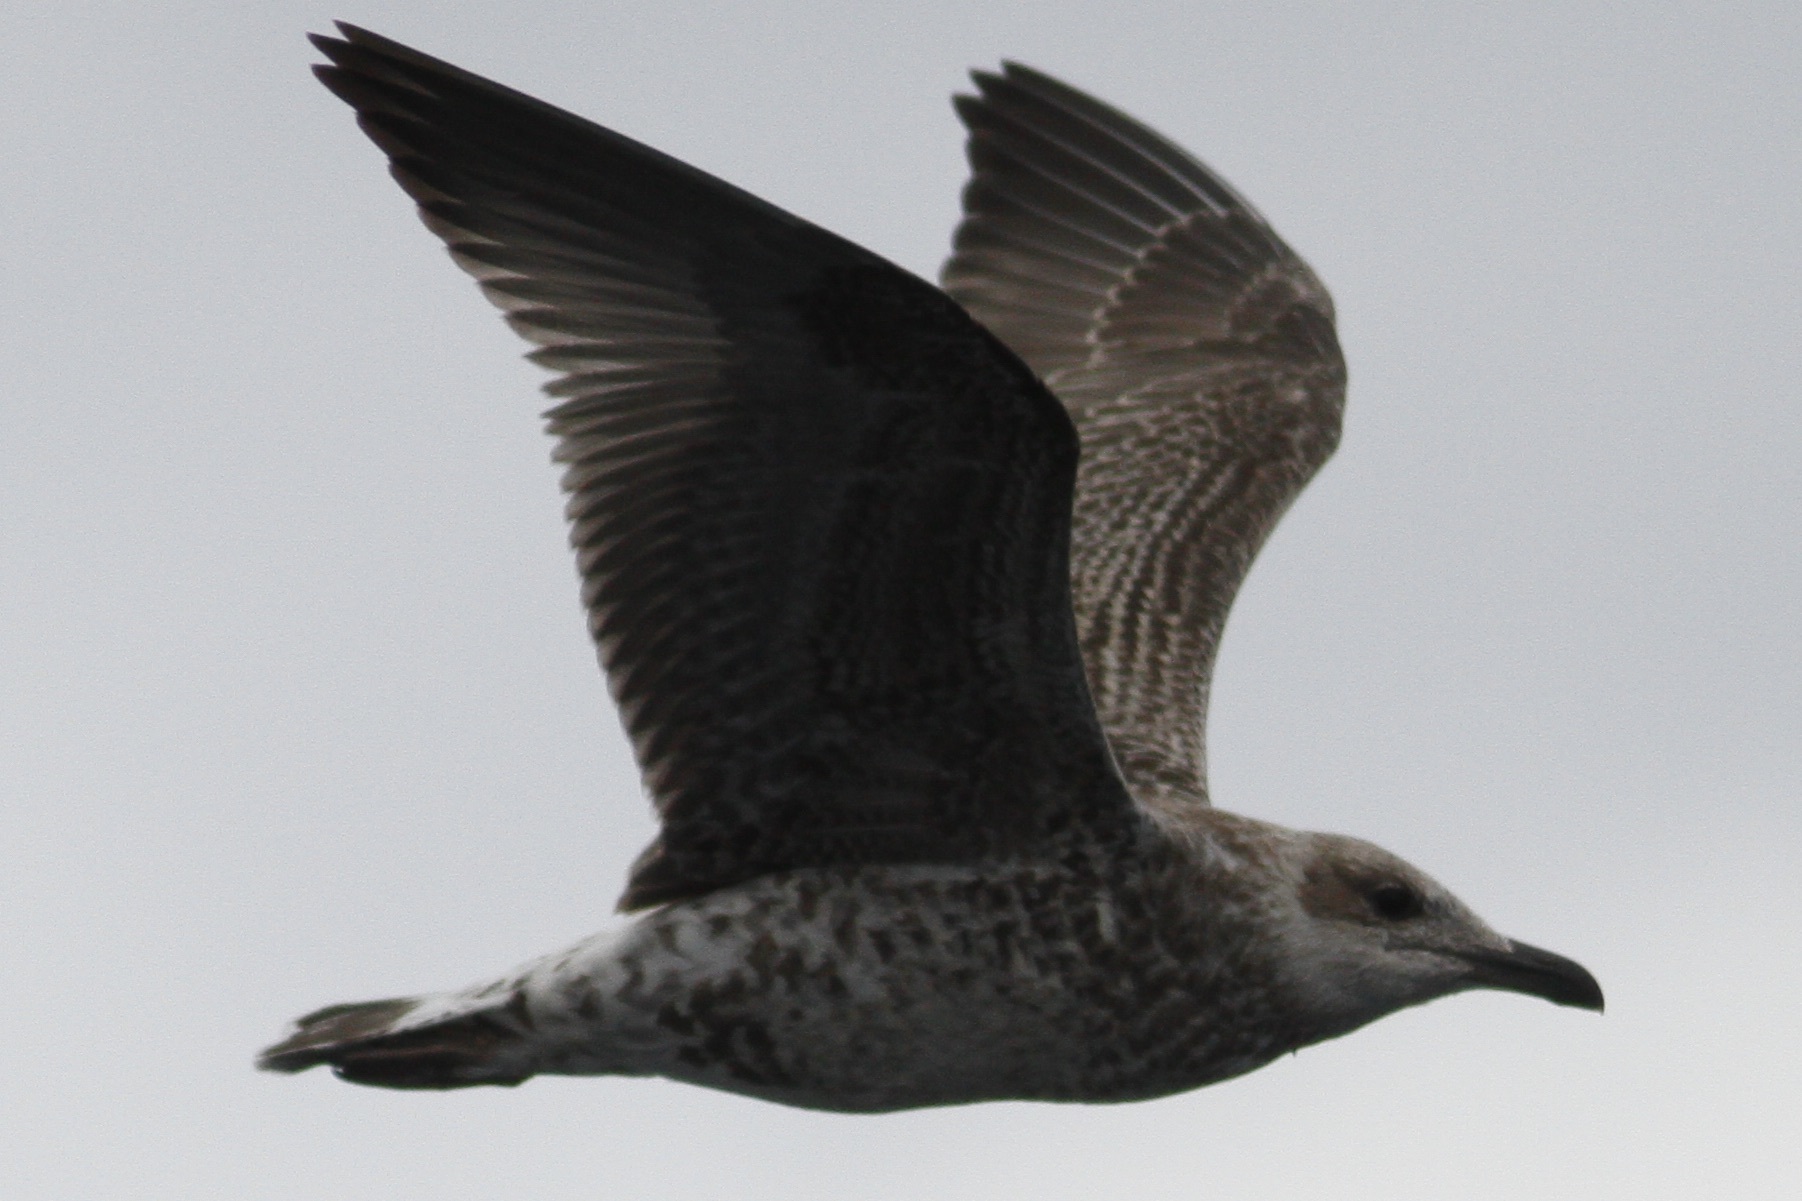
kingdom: Animalia
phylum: Chordata
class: Aves
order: Charadriiformes
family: Laridae
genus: Larus
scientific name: Larus fuscus
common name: Lesser black-backed gull
